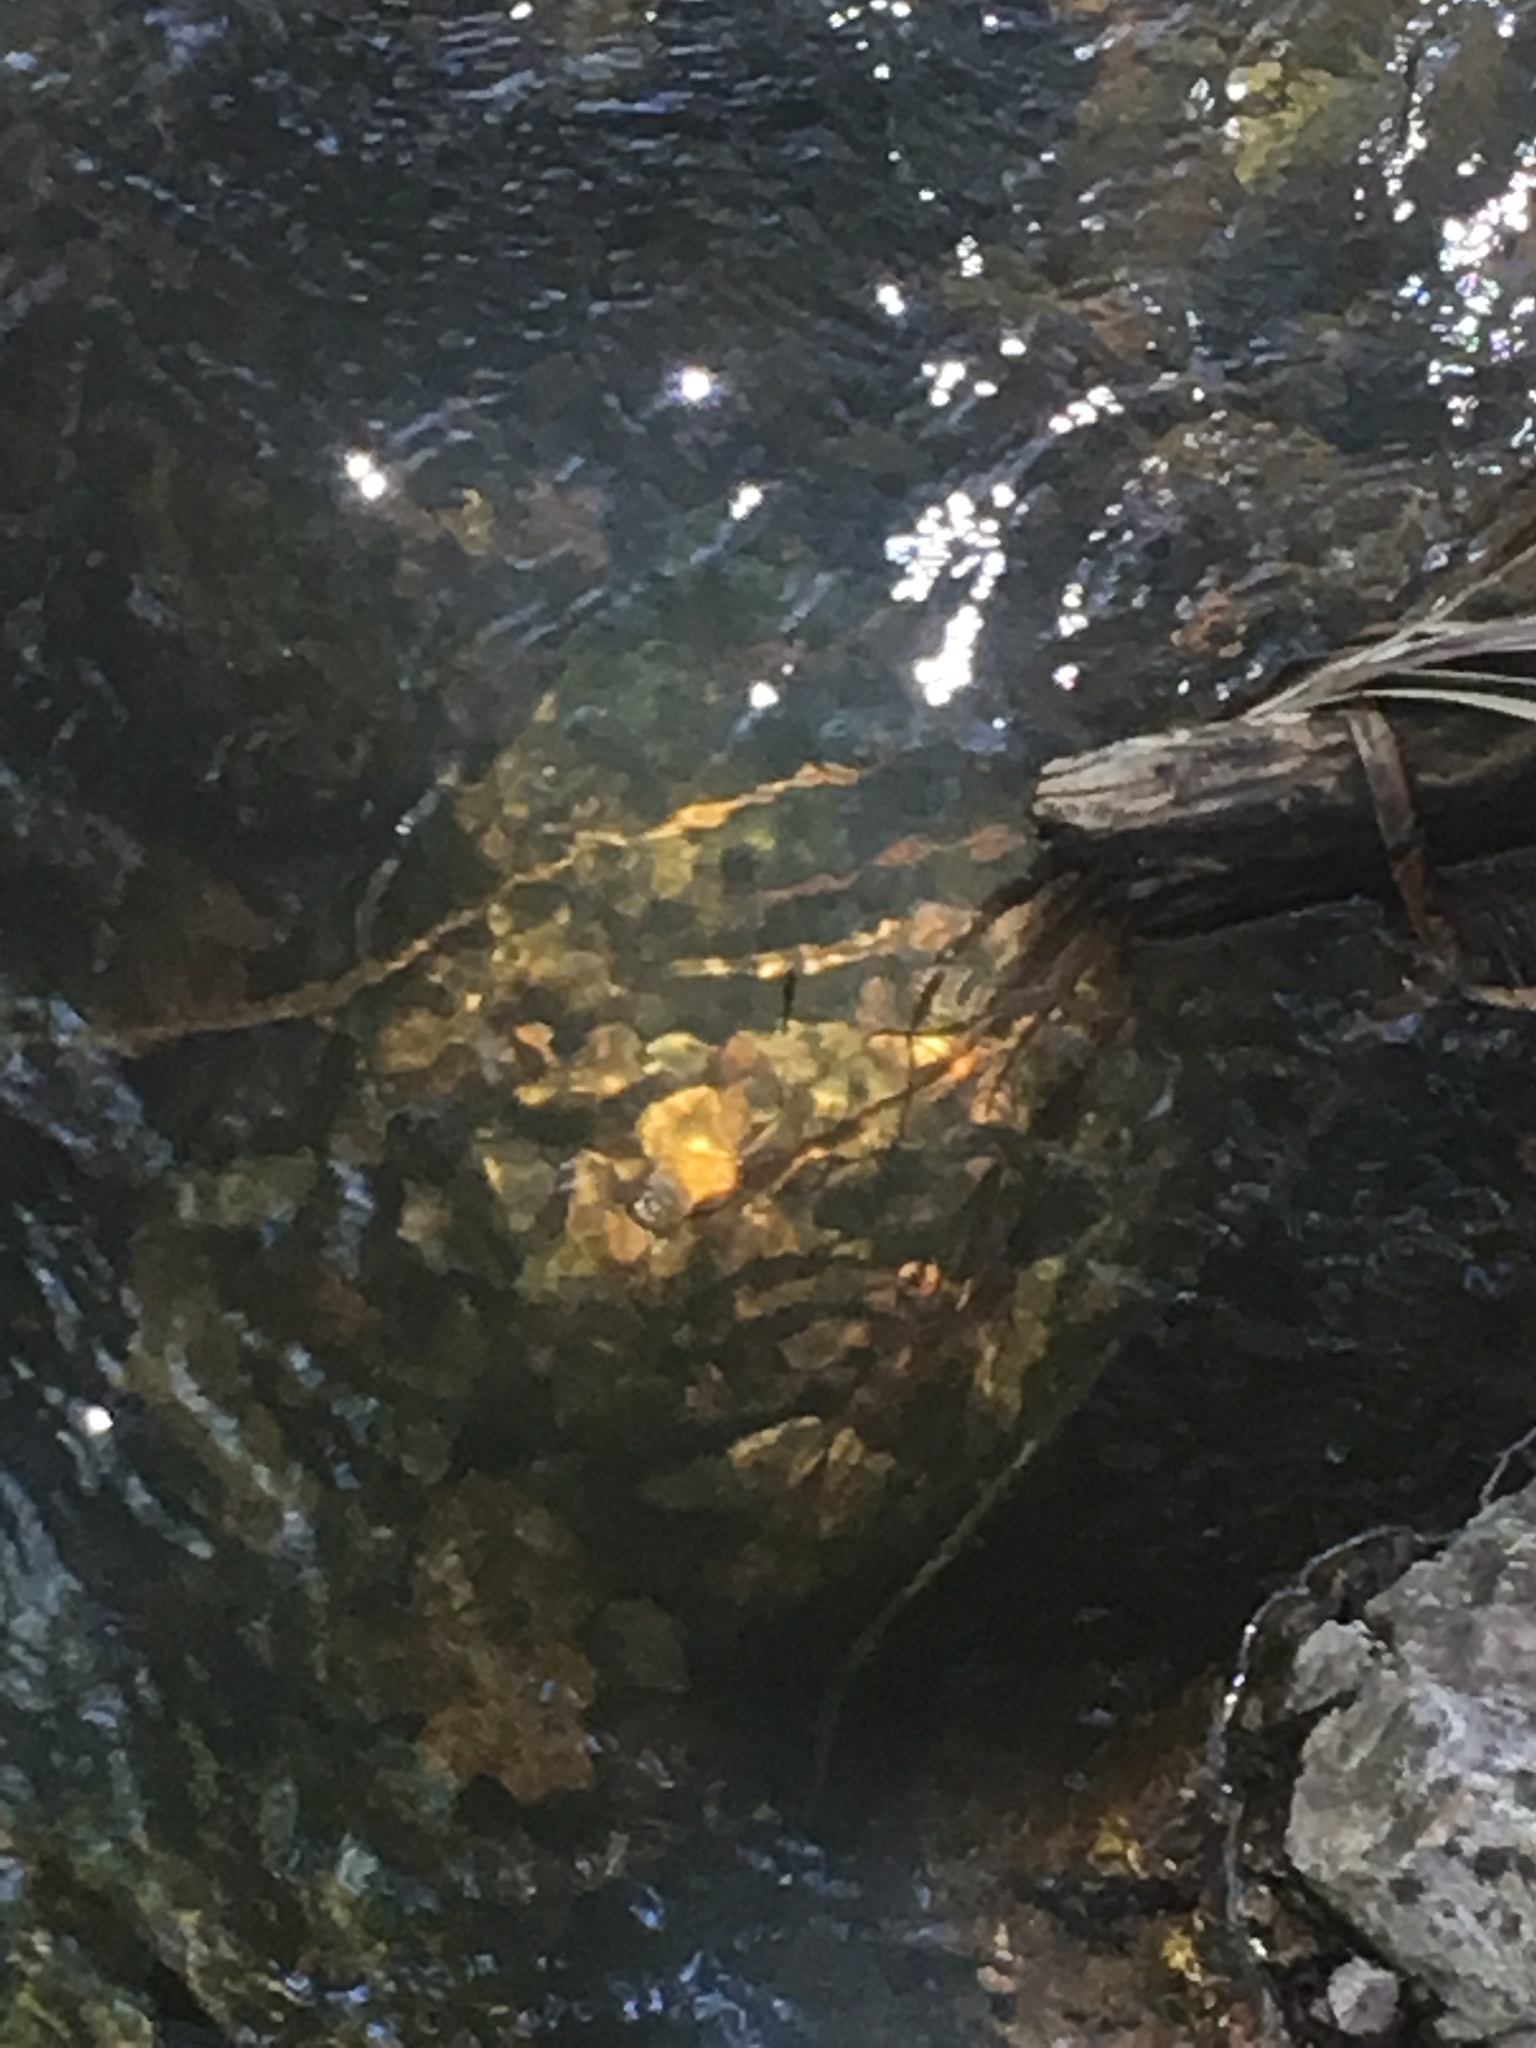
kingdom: Animalia
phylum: Chordata
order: Gasterosteiformes
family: Gasterosteidae
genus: Gasterosteus
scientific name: Gasterosteus aculeatus
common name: Three-spined stickleback
